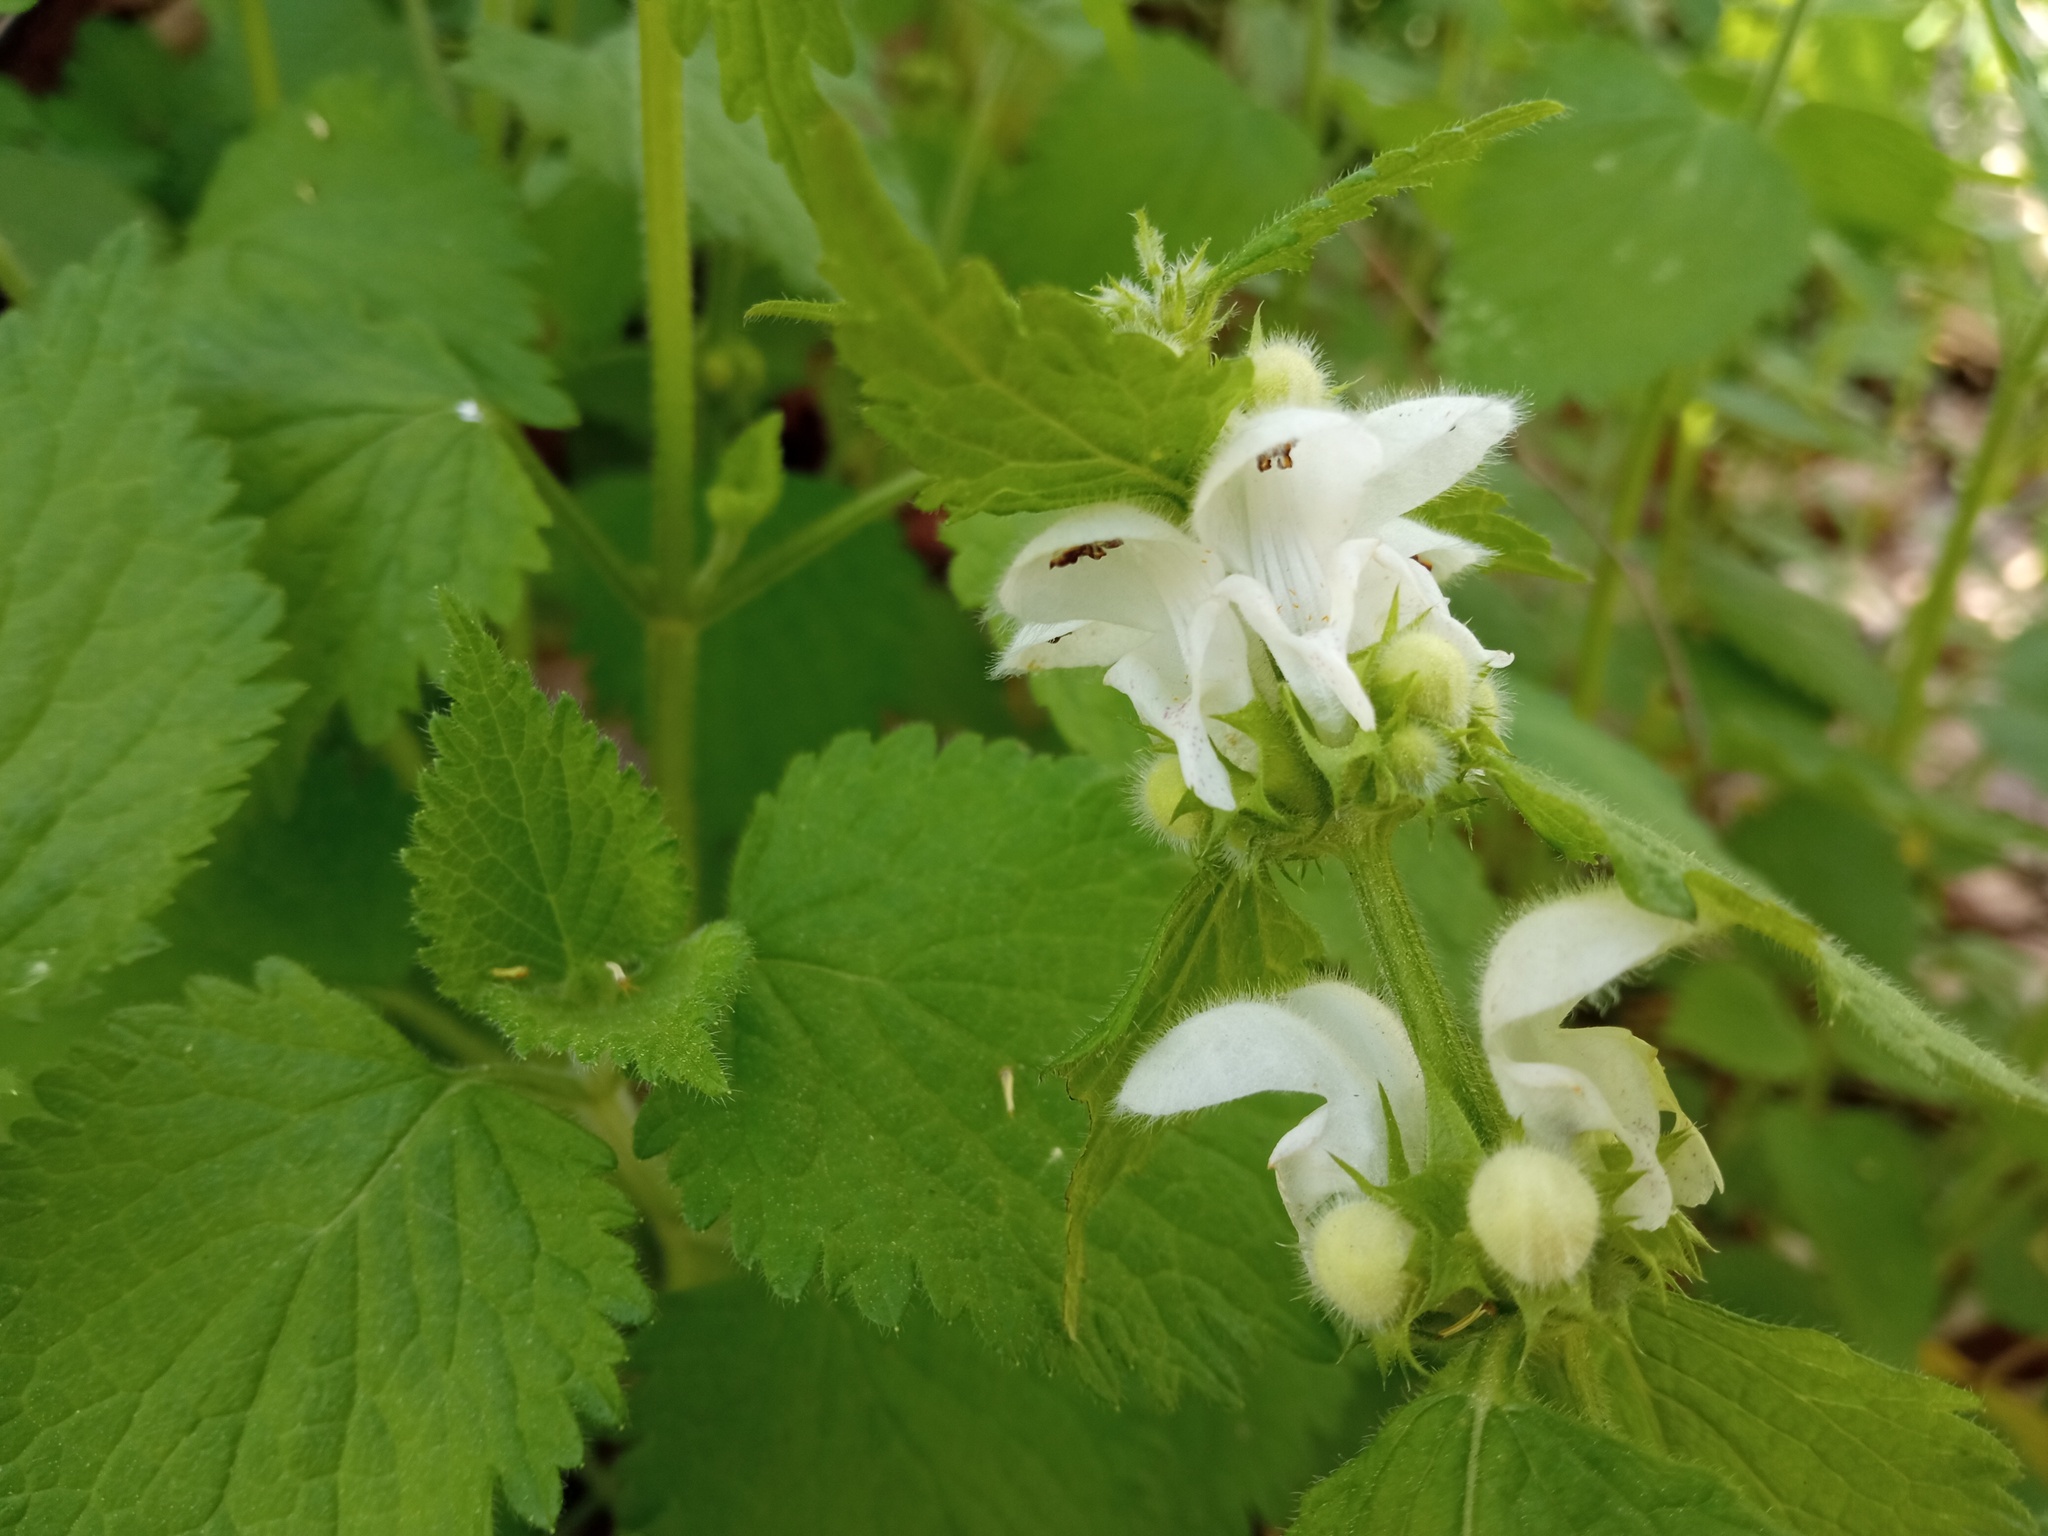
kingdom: Plantae
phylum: Tracheophyta
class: Magnoliopsida
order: Lamiales
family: Lamiaceae
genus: Lamium
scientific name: Lamium flexuosum
